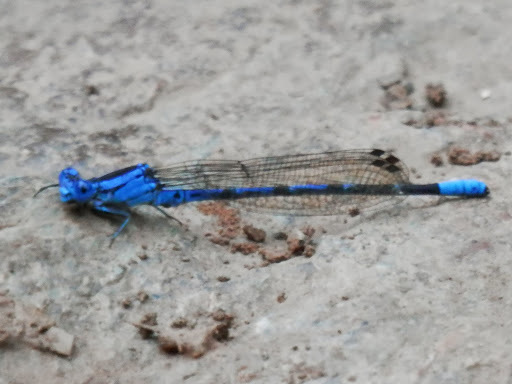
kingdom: Animalia
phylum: Arthropoda
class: Insecta
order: Odonata
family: Coenagrionidae
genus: Argia
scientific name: Argia vivida
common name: Vivid dancer
